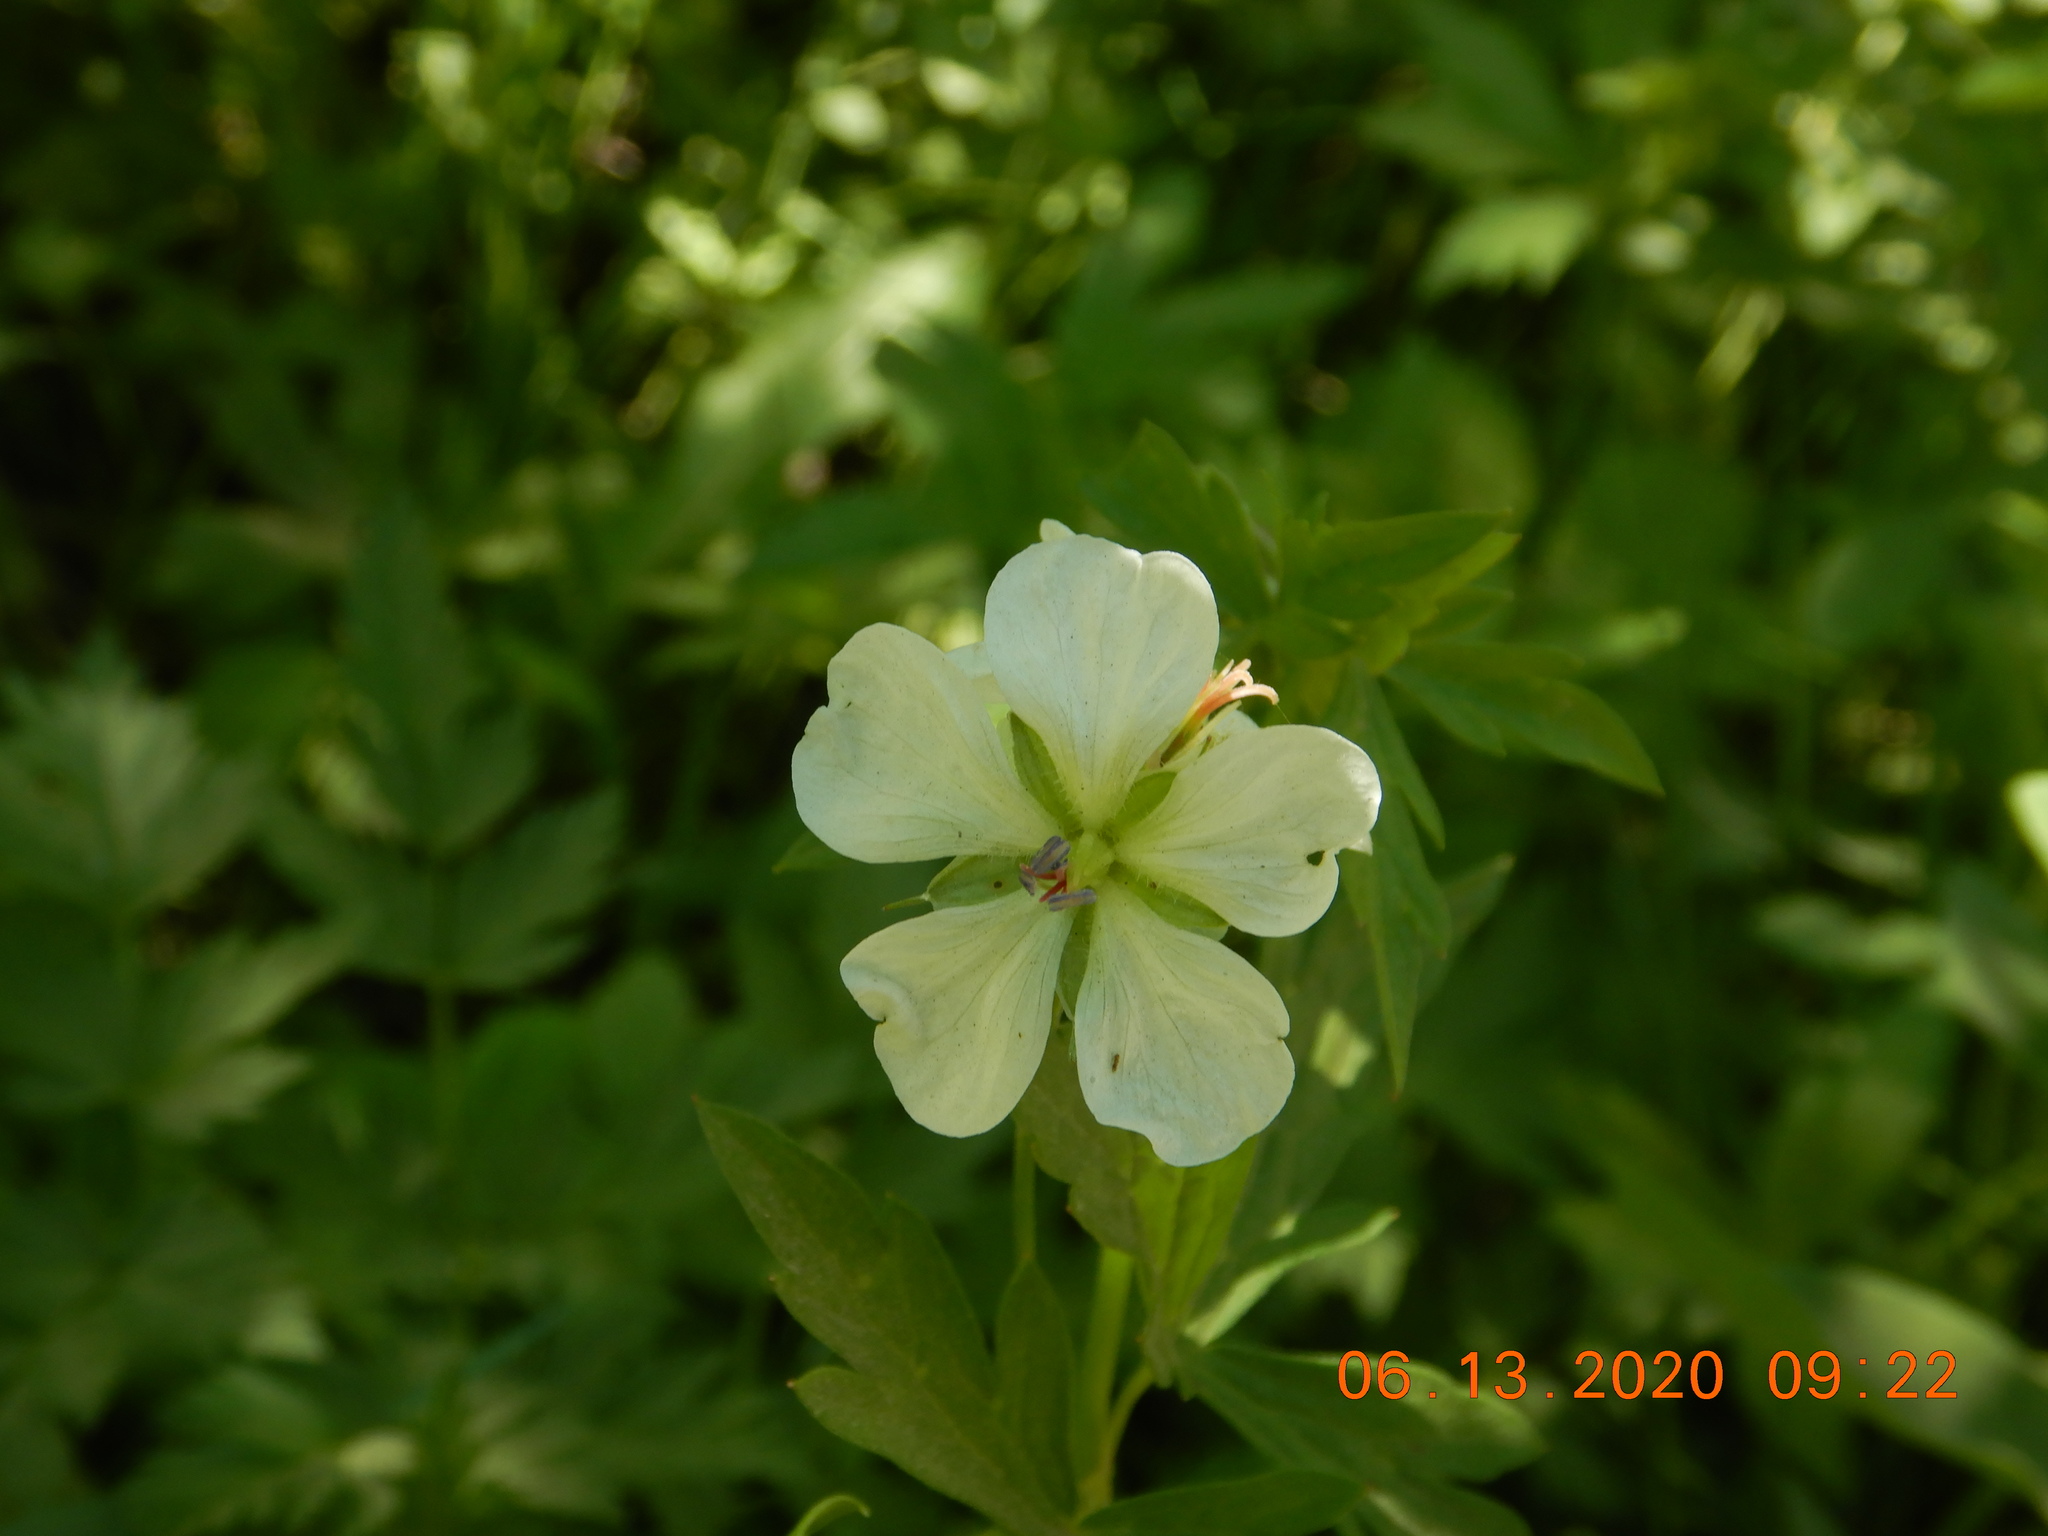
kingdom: Plantae
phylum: Tracheophyta
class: Magnoliopsida
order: Geraniales
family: Geraniaceae
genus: Geranium
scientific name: Geranium richardsonii
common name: Richardson's crane's-bill
